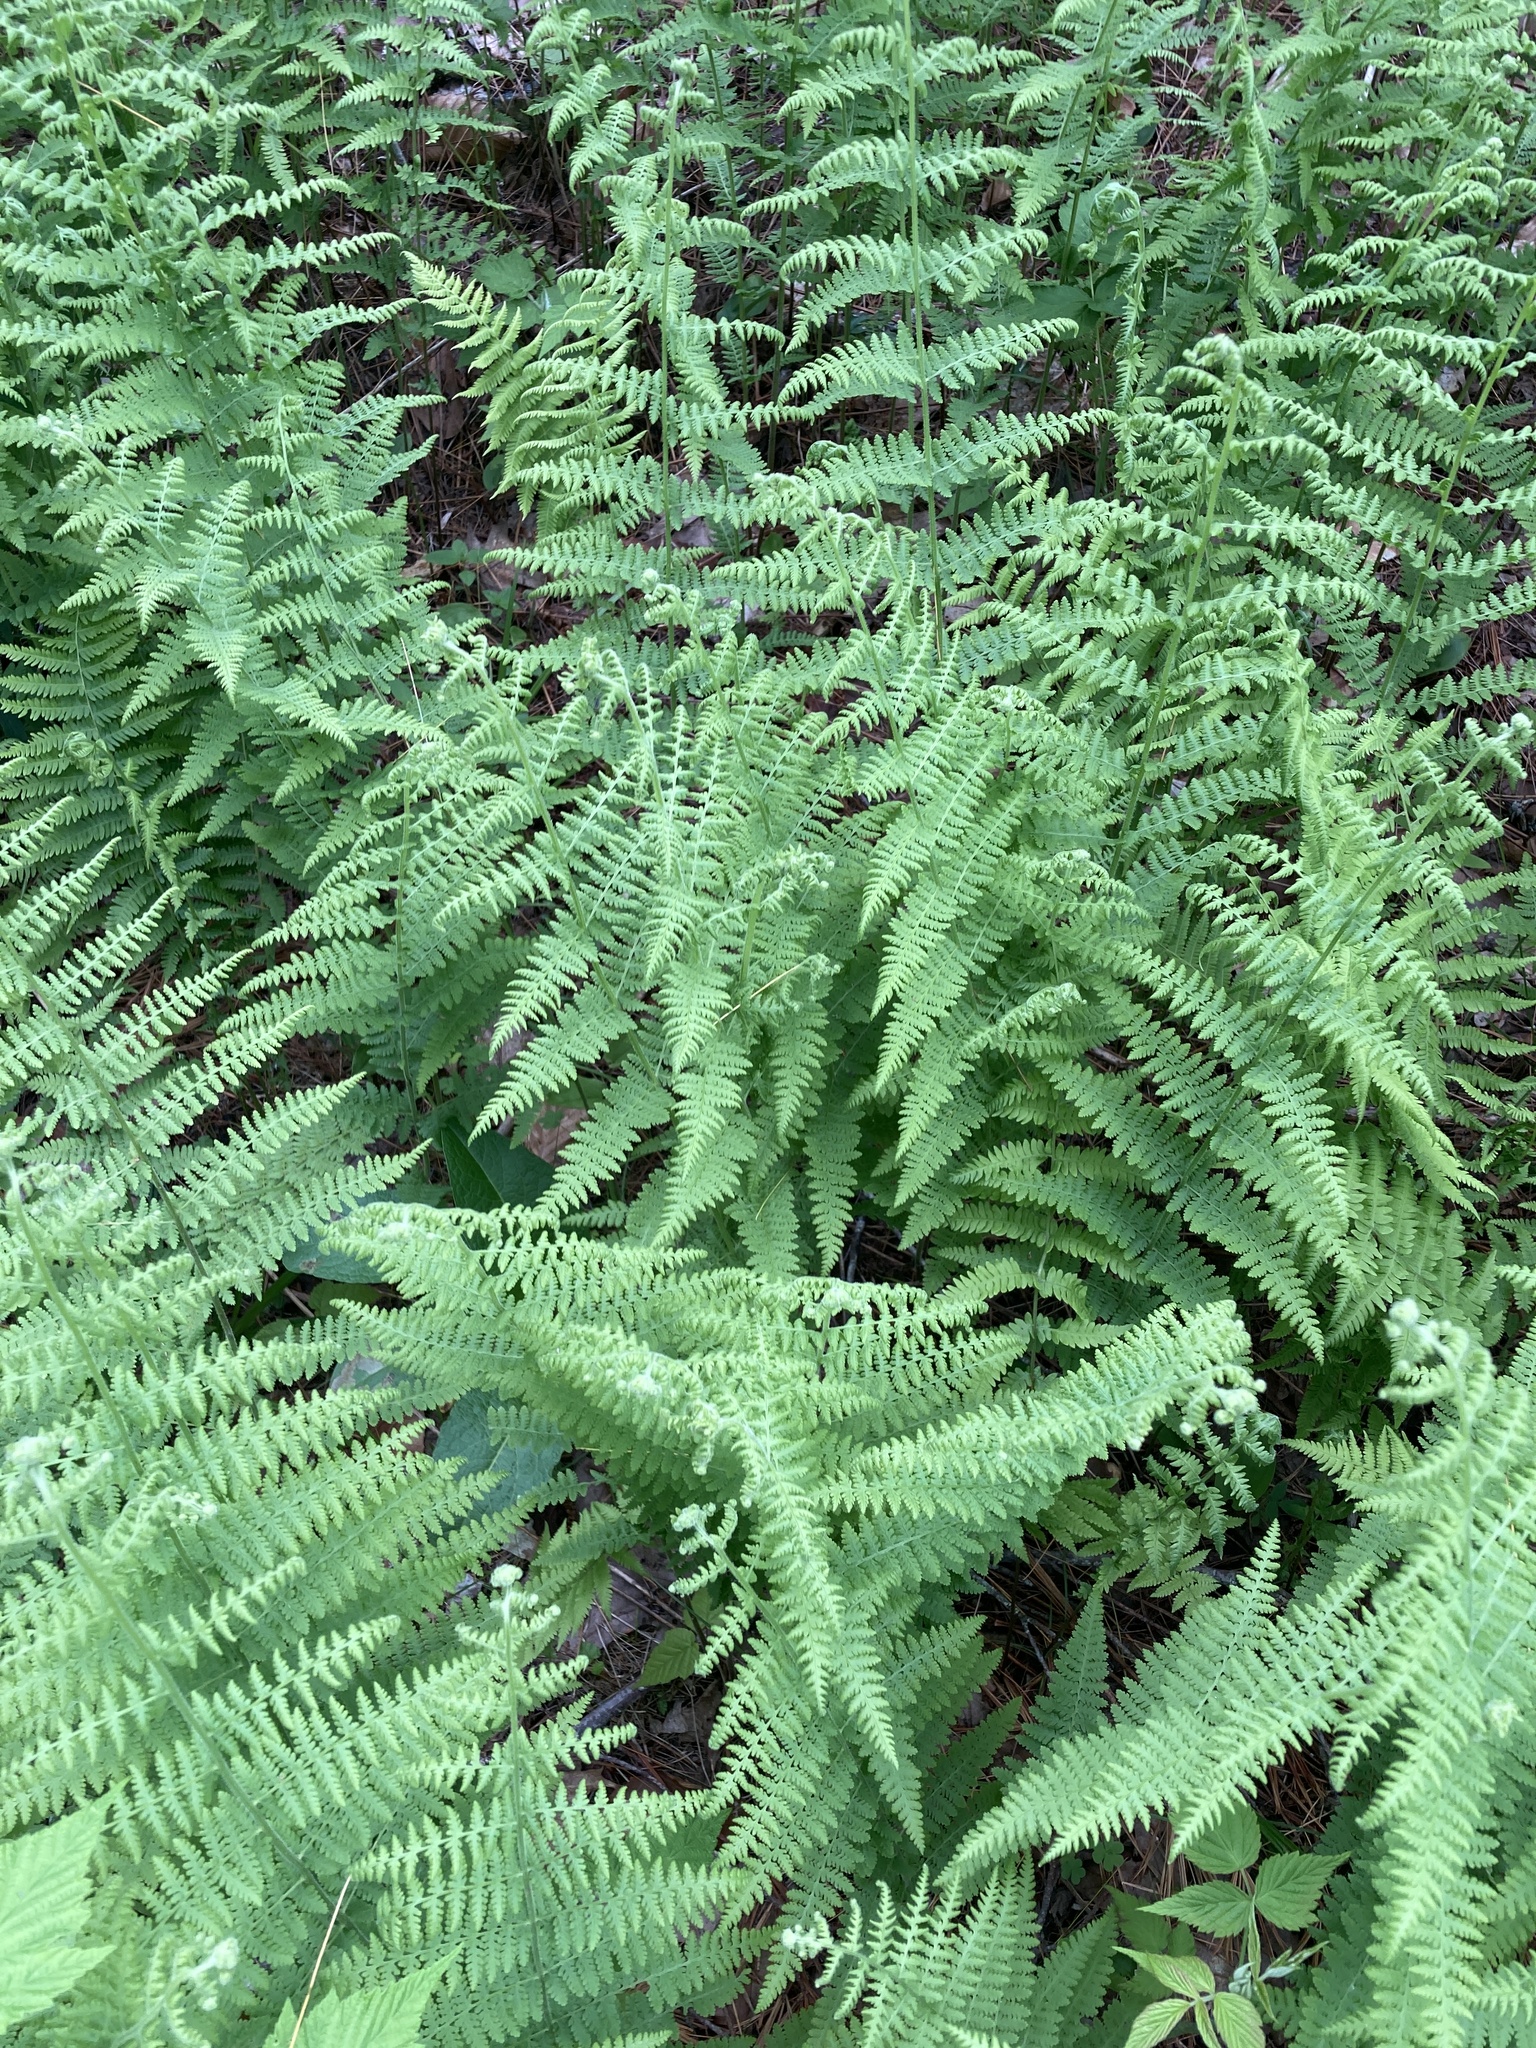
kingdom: Plantae
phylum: Tracheophyta
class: Polypodiopsida
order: Polypodiales
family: Dennstaedtiaceae
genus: Sitobolium
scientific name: Sitobolium punctilobum
